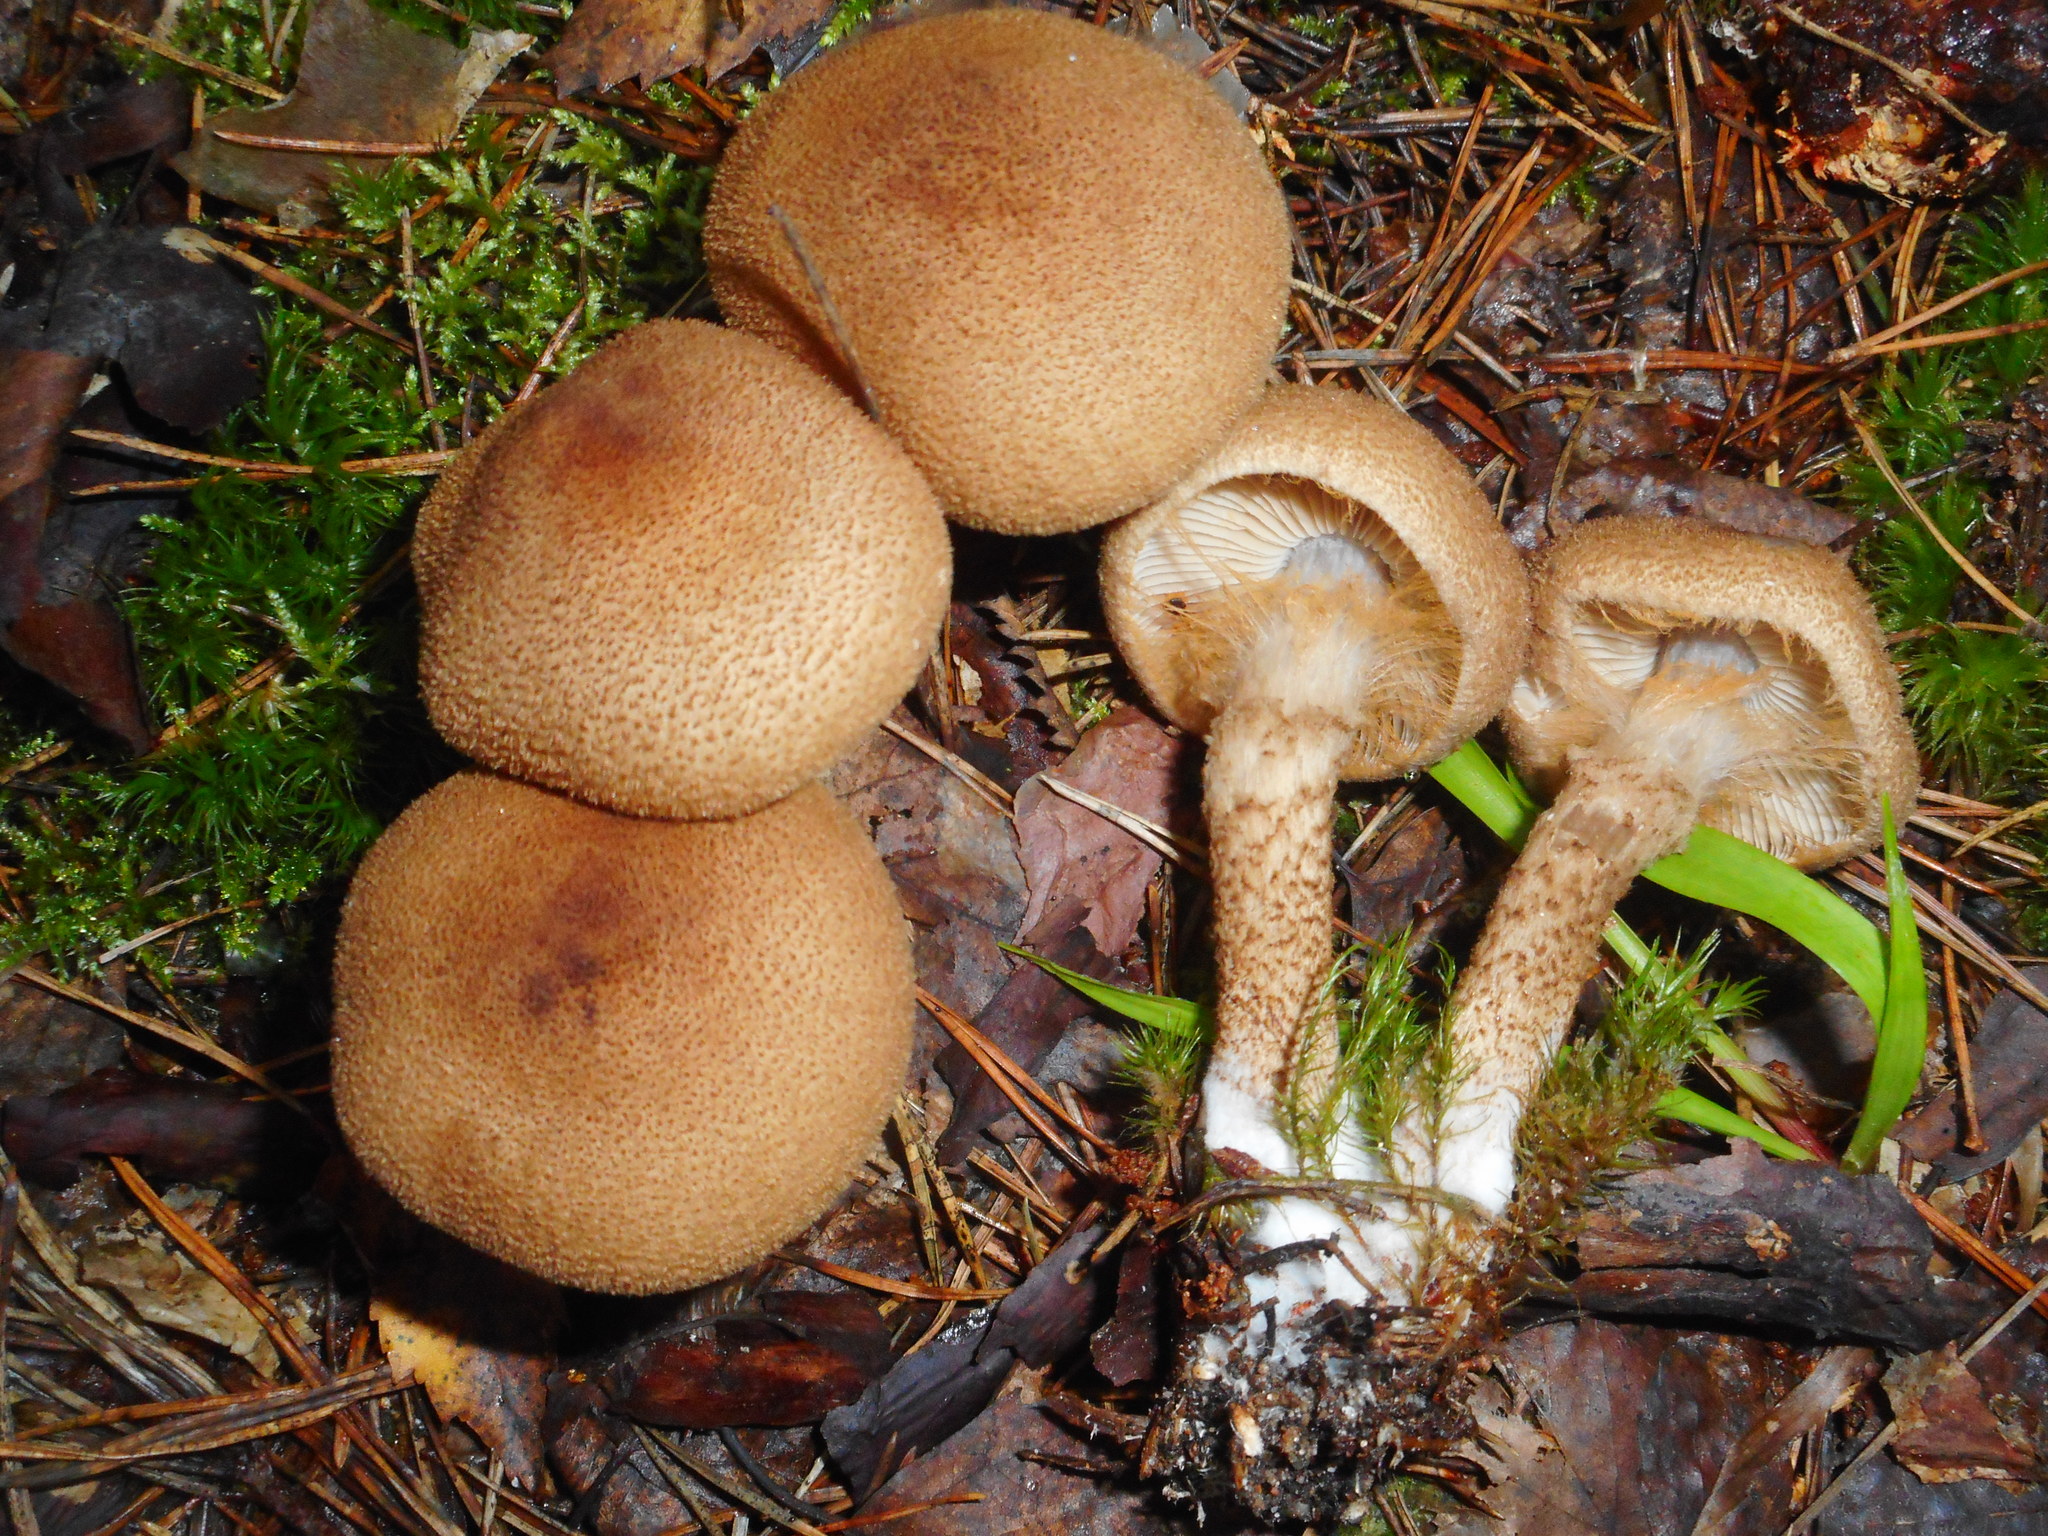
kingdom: Fungi
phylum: Basidiomycota
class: Agaricomycetes
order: Agaricales
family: Cortinariaceae
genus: Cortinarius
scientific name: Cortinarius pholideus
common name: Scaly webcap
